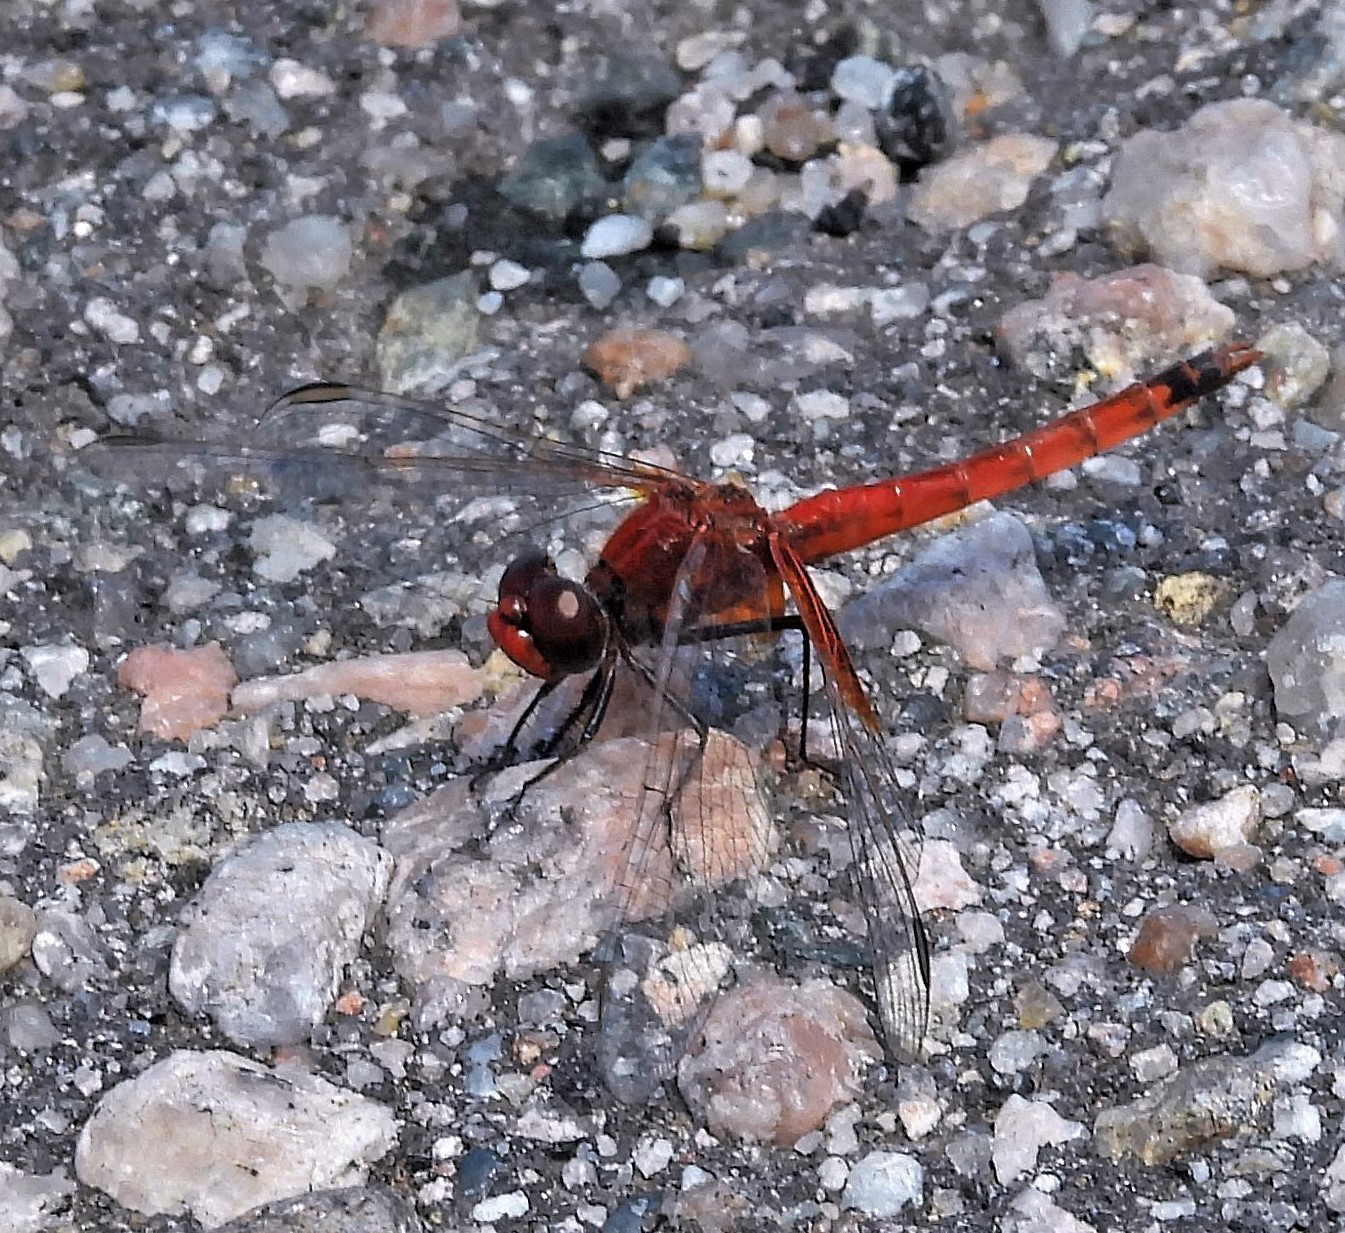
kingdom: Animalia
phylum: Arthropoda
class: Insecta
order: Odonata
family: Libellulidae
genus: Erythrodiplax
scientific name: Erythrodiplax corallina
